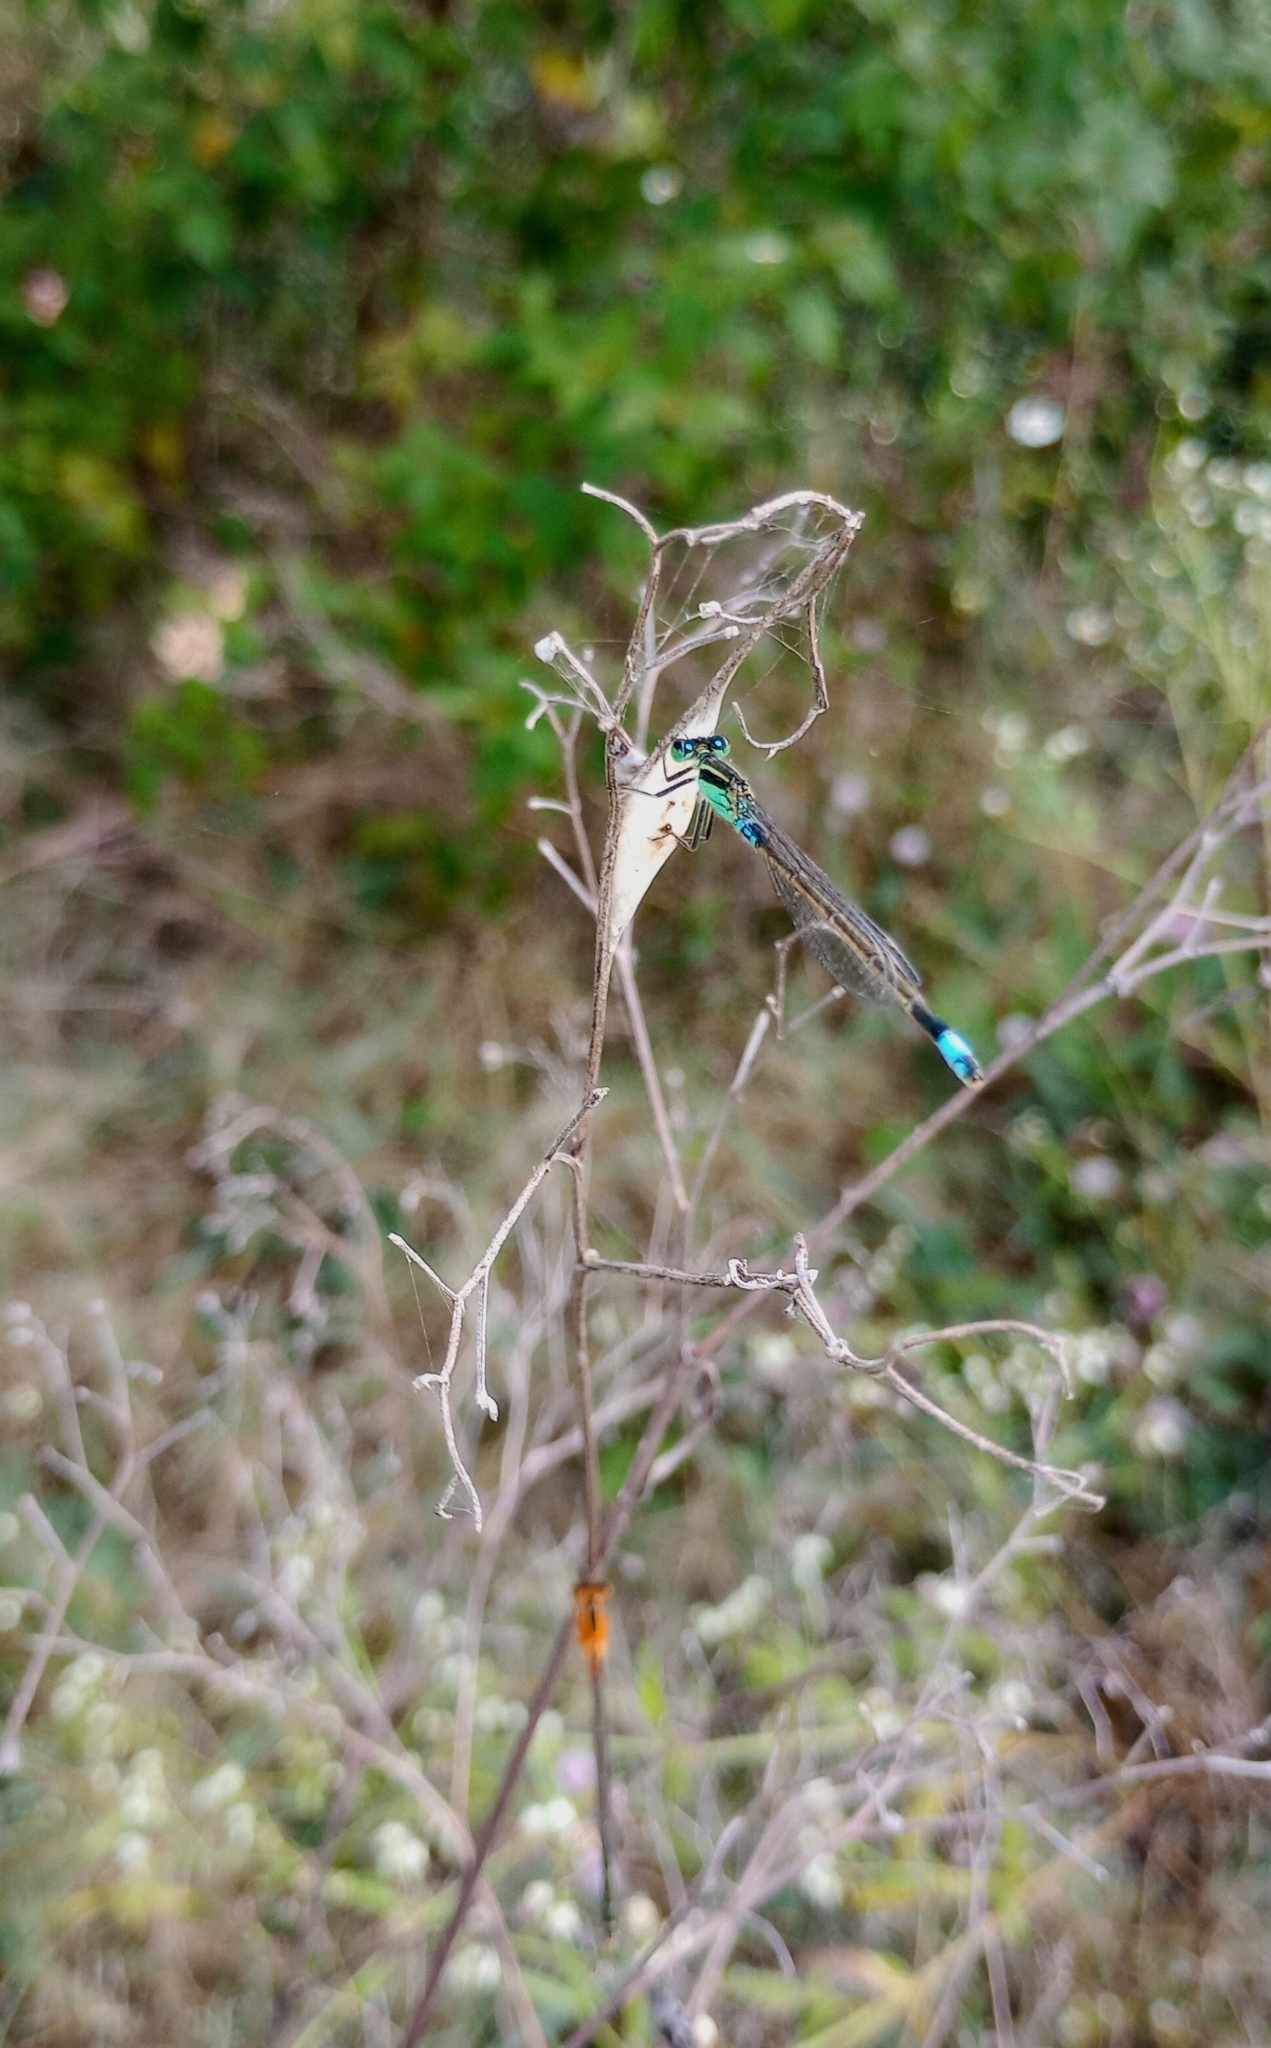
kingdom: Animalia
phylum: Arthropoda
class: Insecta
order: Odonata
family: Coenagrionidae
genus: Ischnura
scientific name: Ischnura senegalensis
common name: Tropical bluetail
